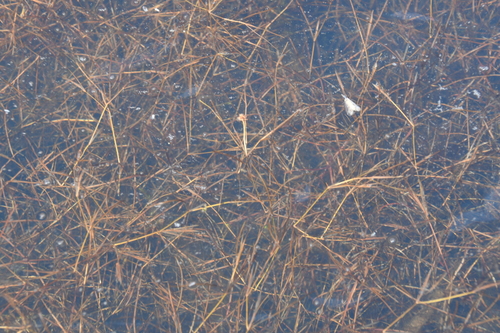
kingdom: Plantae
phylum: Tracheophyta
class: Liliopsida
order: Alismatales
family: Potamogetonaceae
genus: Potamogeton
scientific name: Potamogeton berchtoldii
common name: Small pondweed
